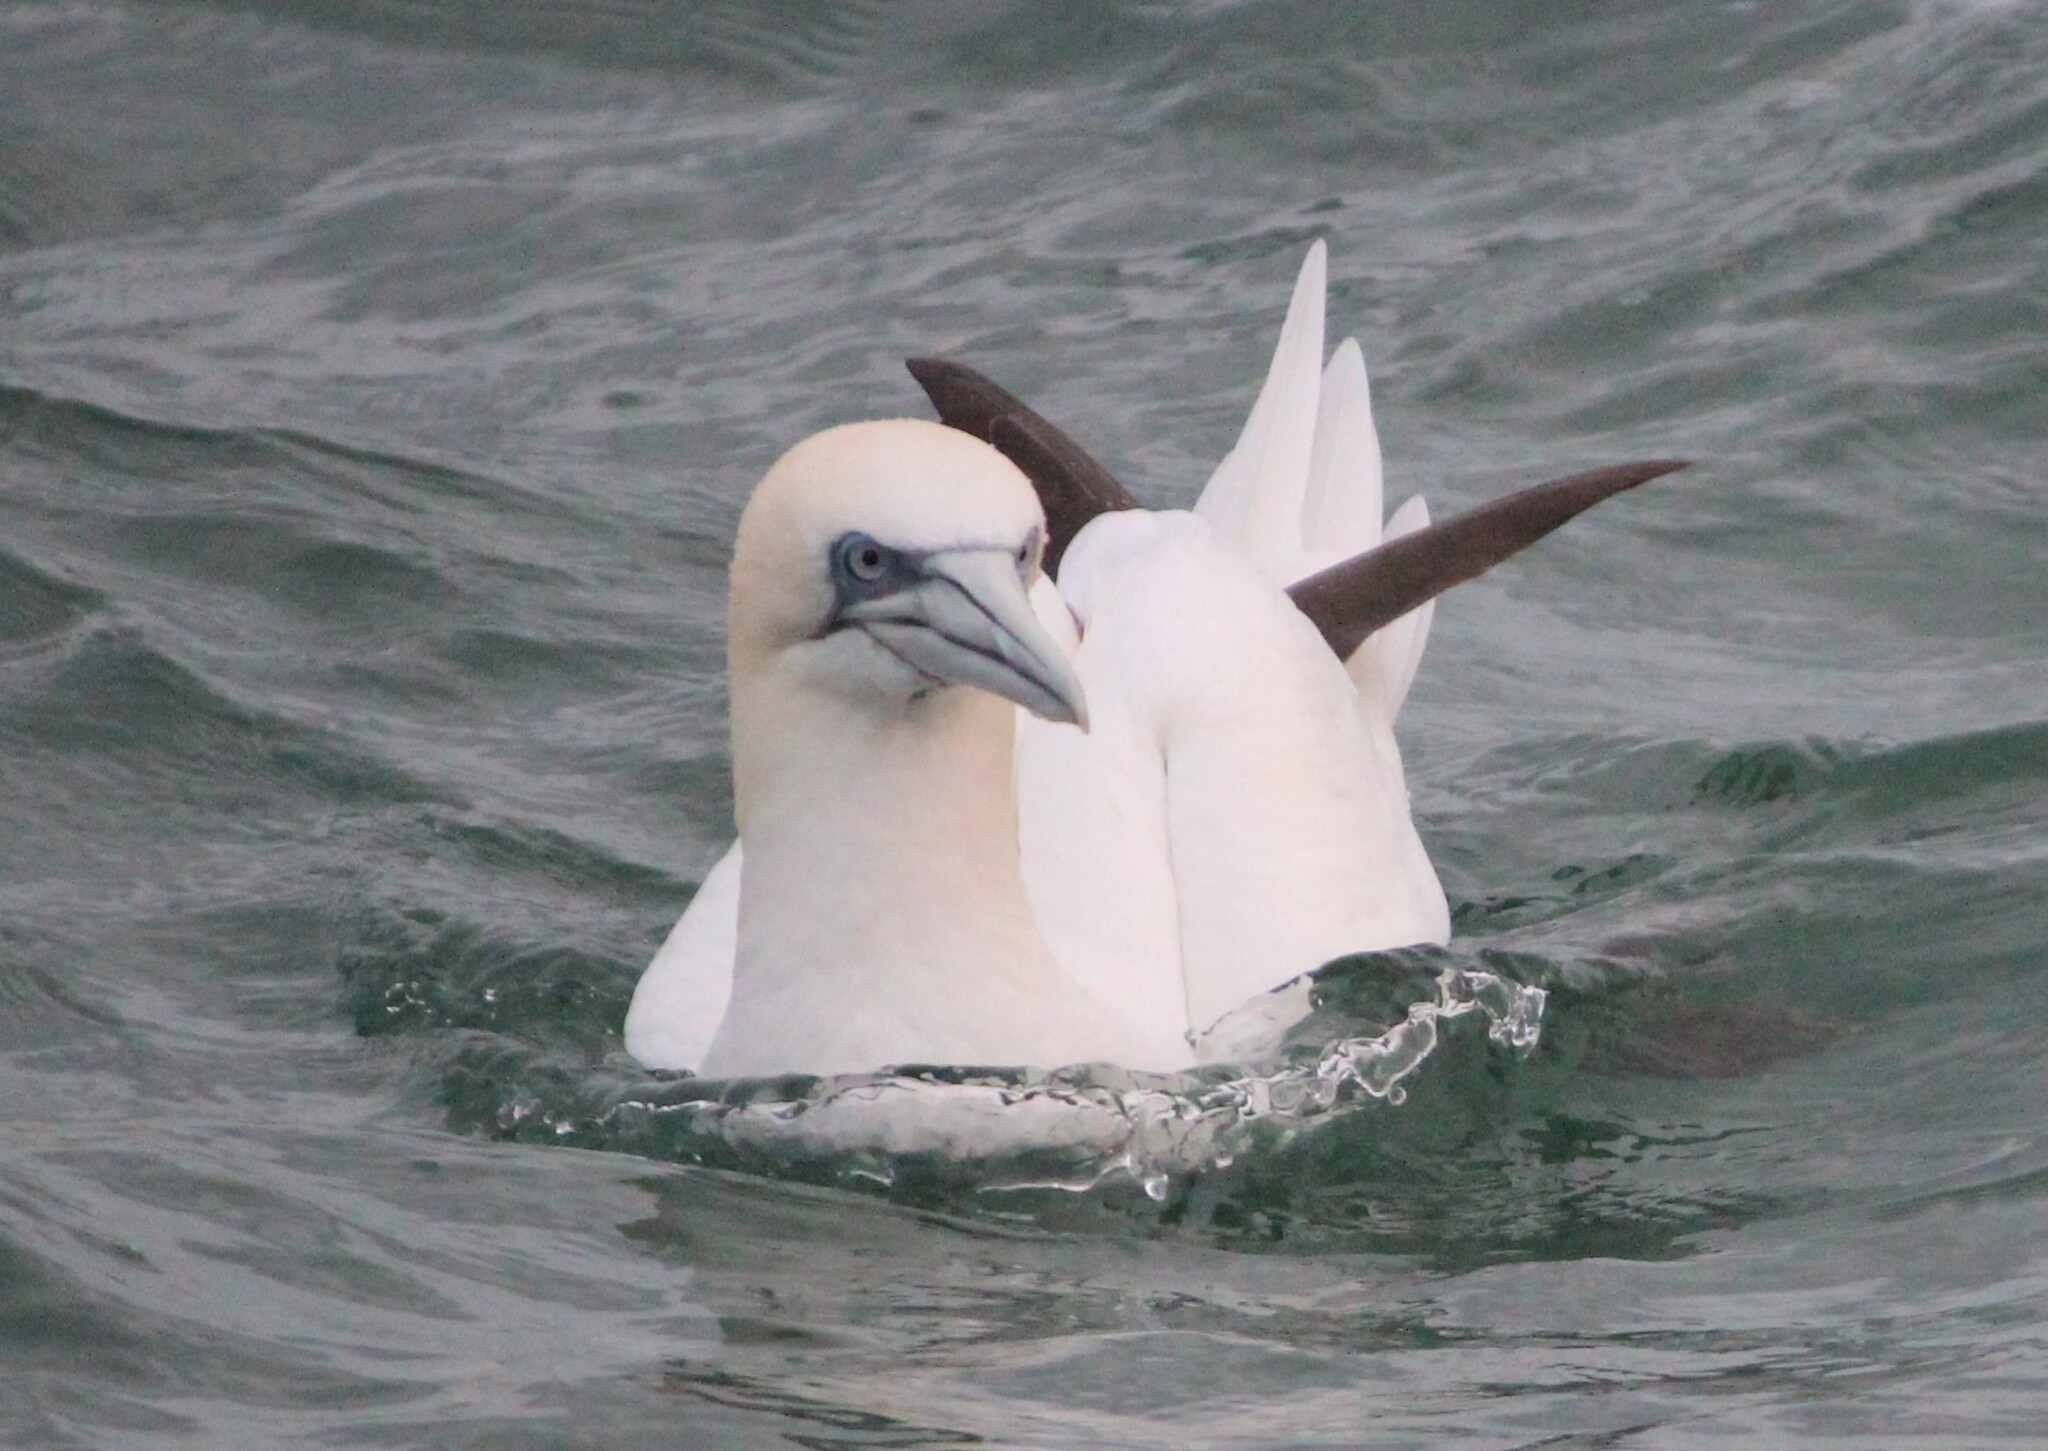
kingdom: Animalia
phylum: Chordata
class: Aves
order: Suliformes
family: Sulidae
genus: Morus
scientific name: Morus bassanus
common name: Northern gannet
